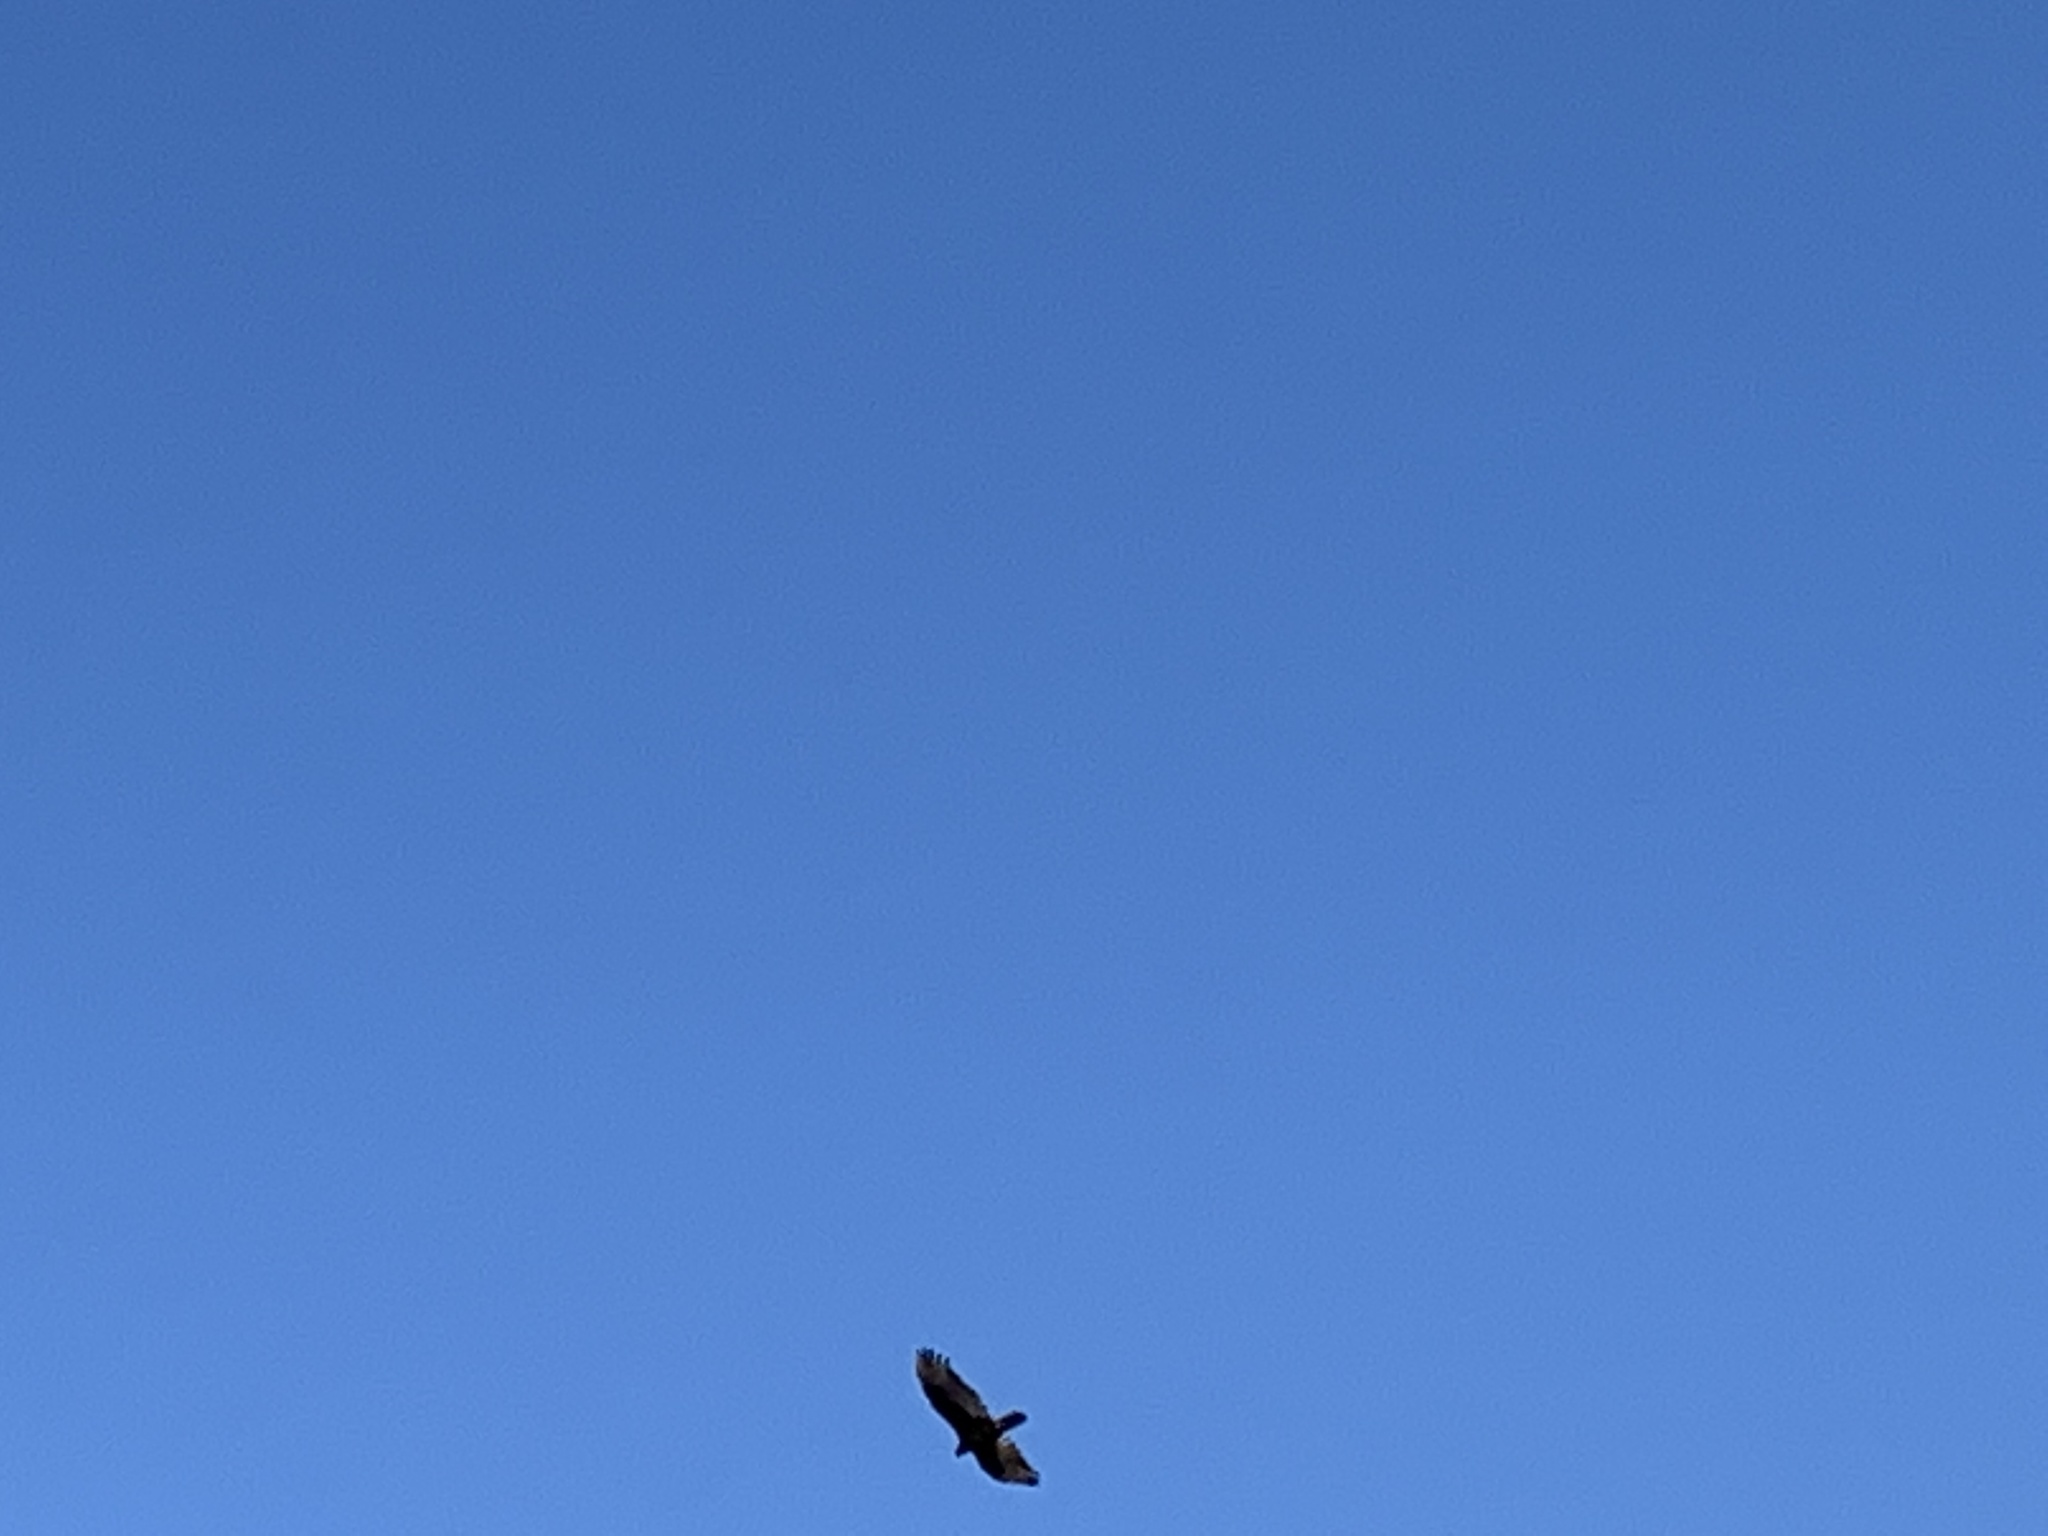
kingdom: Animalia
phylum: Chordata
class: Aves
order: Accipitriformes
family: Cathartidae
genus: Cathartes
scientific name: Cathartes aura
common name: Turkey vulture
